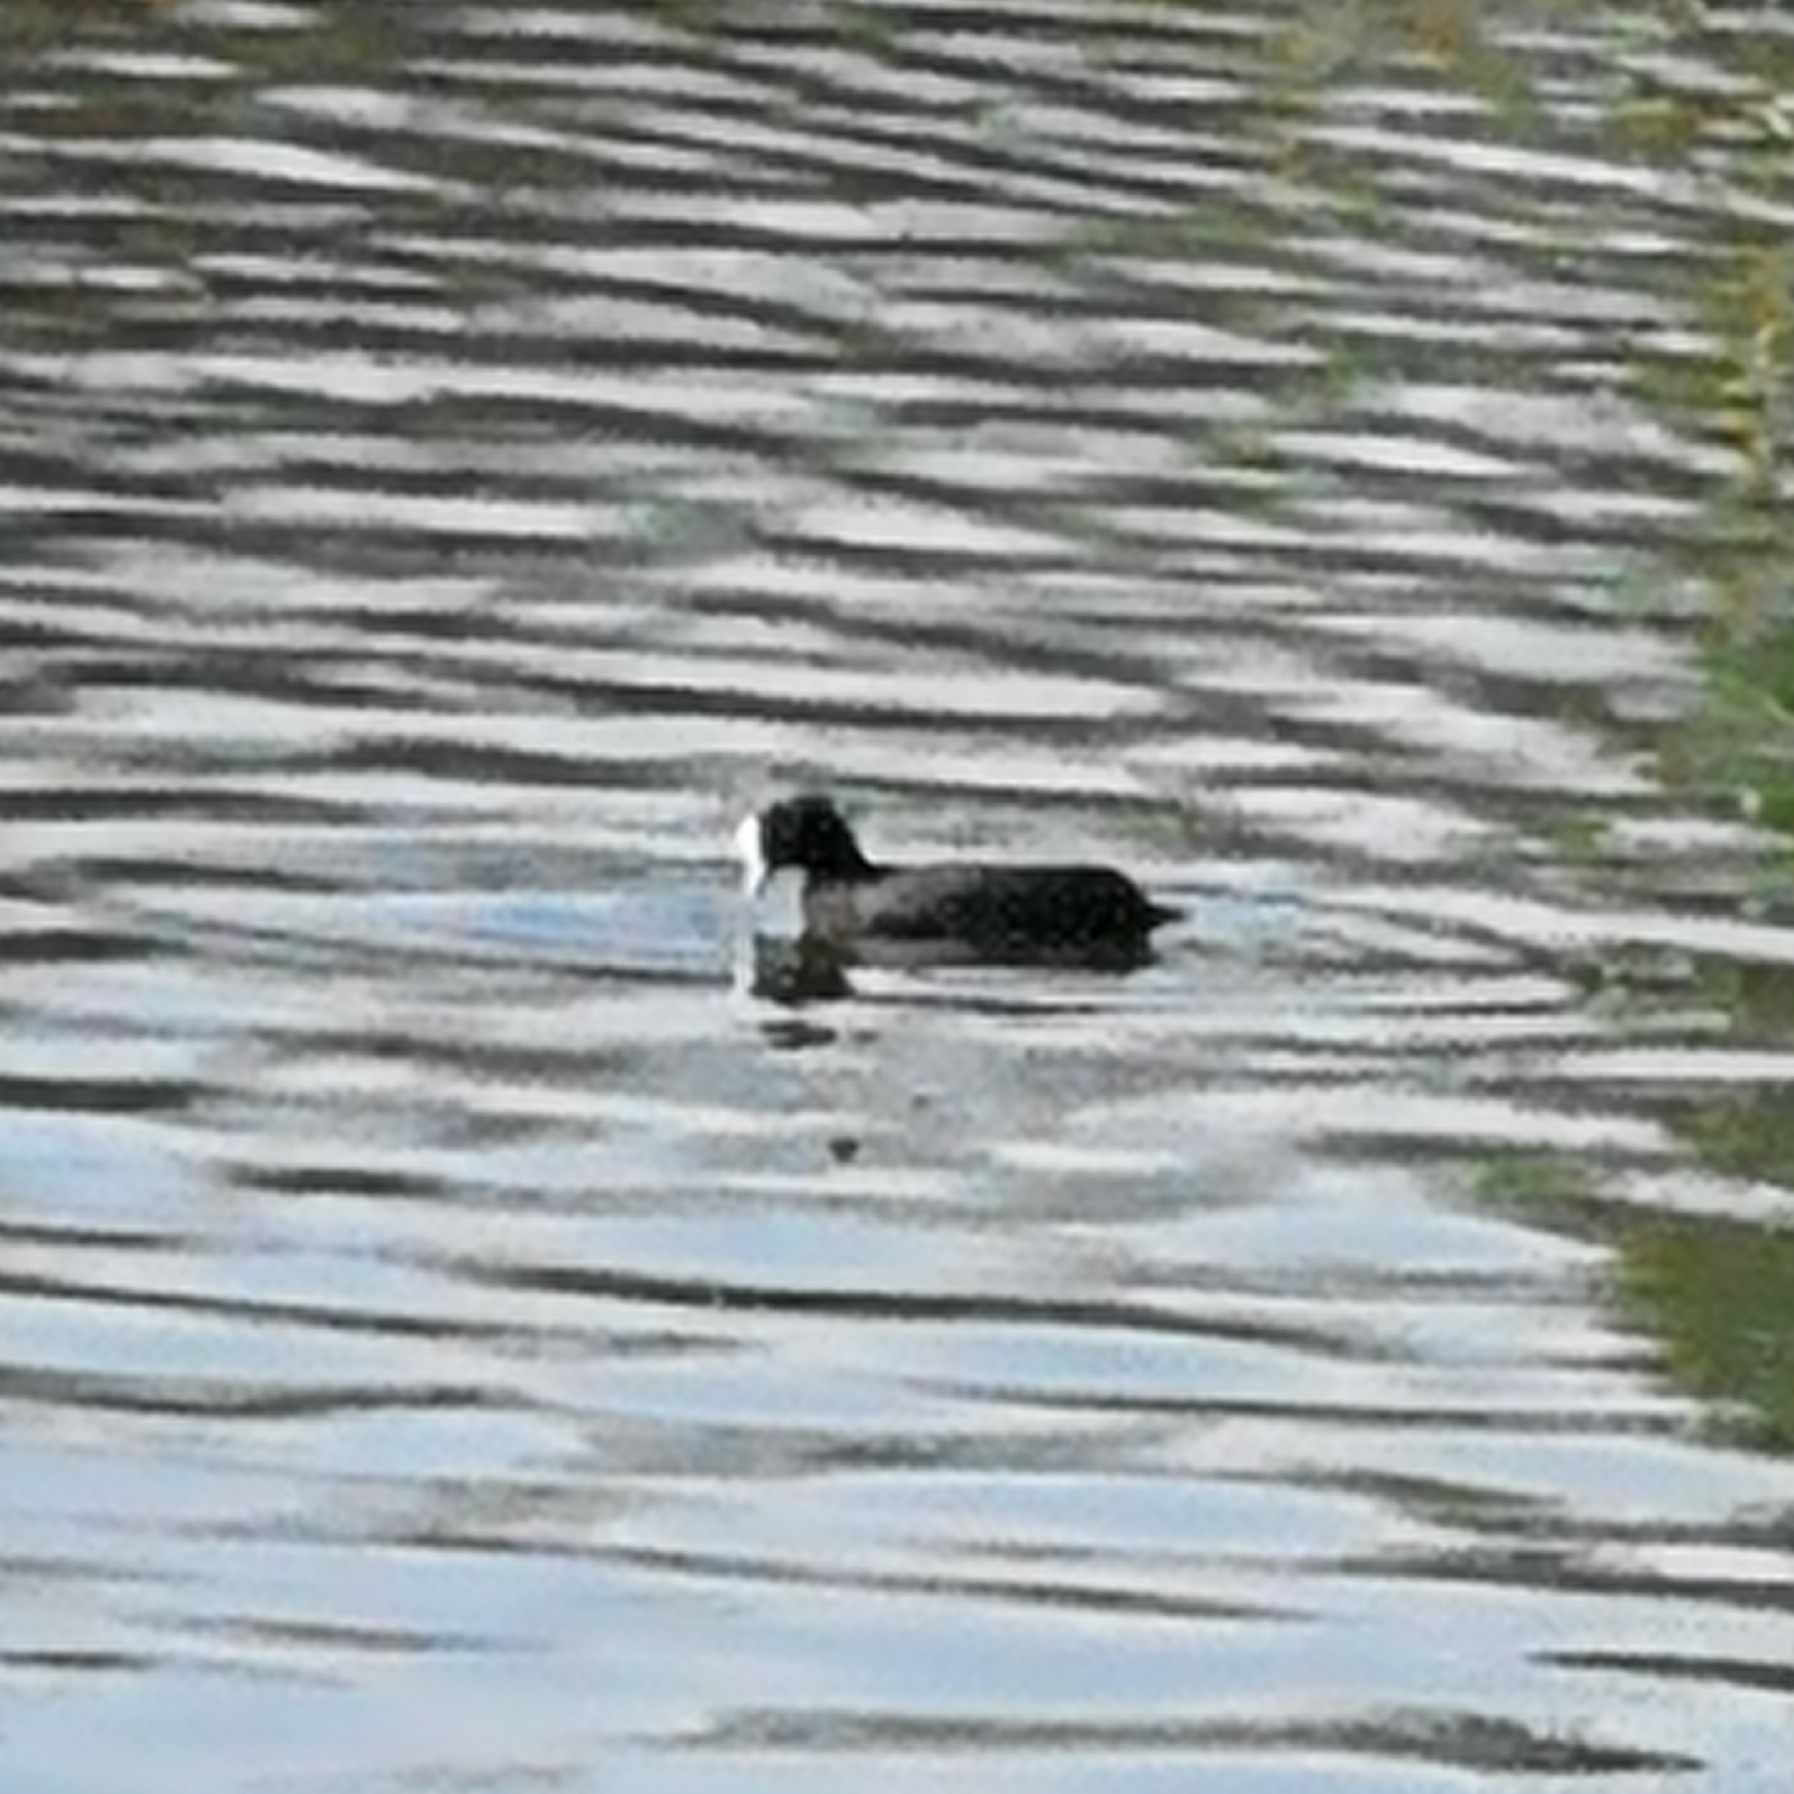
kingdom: Animalia
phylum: Chordata
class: Aves
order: Gruiformes
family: Rallidae
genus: Fulica
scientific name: Fulica atra
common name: Eurasian coot
